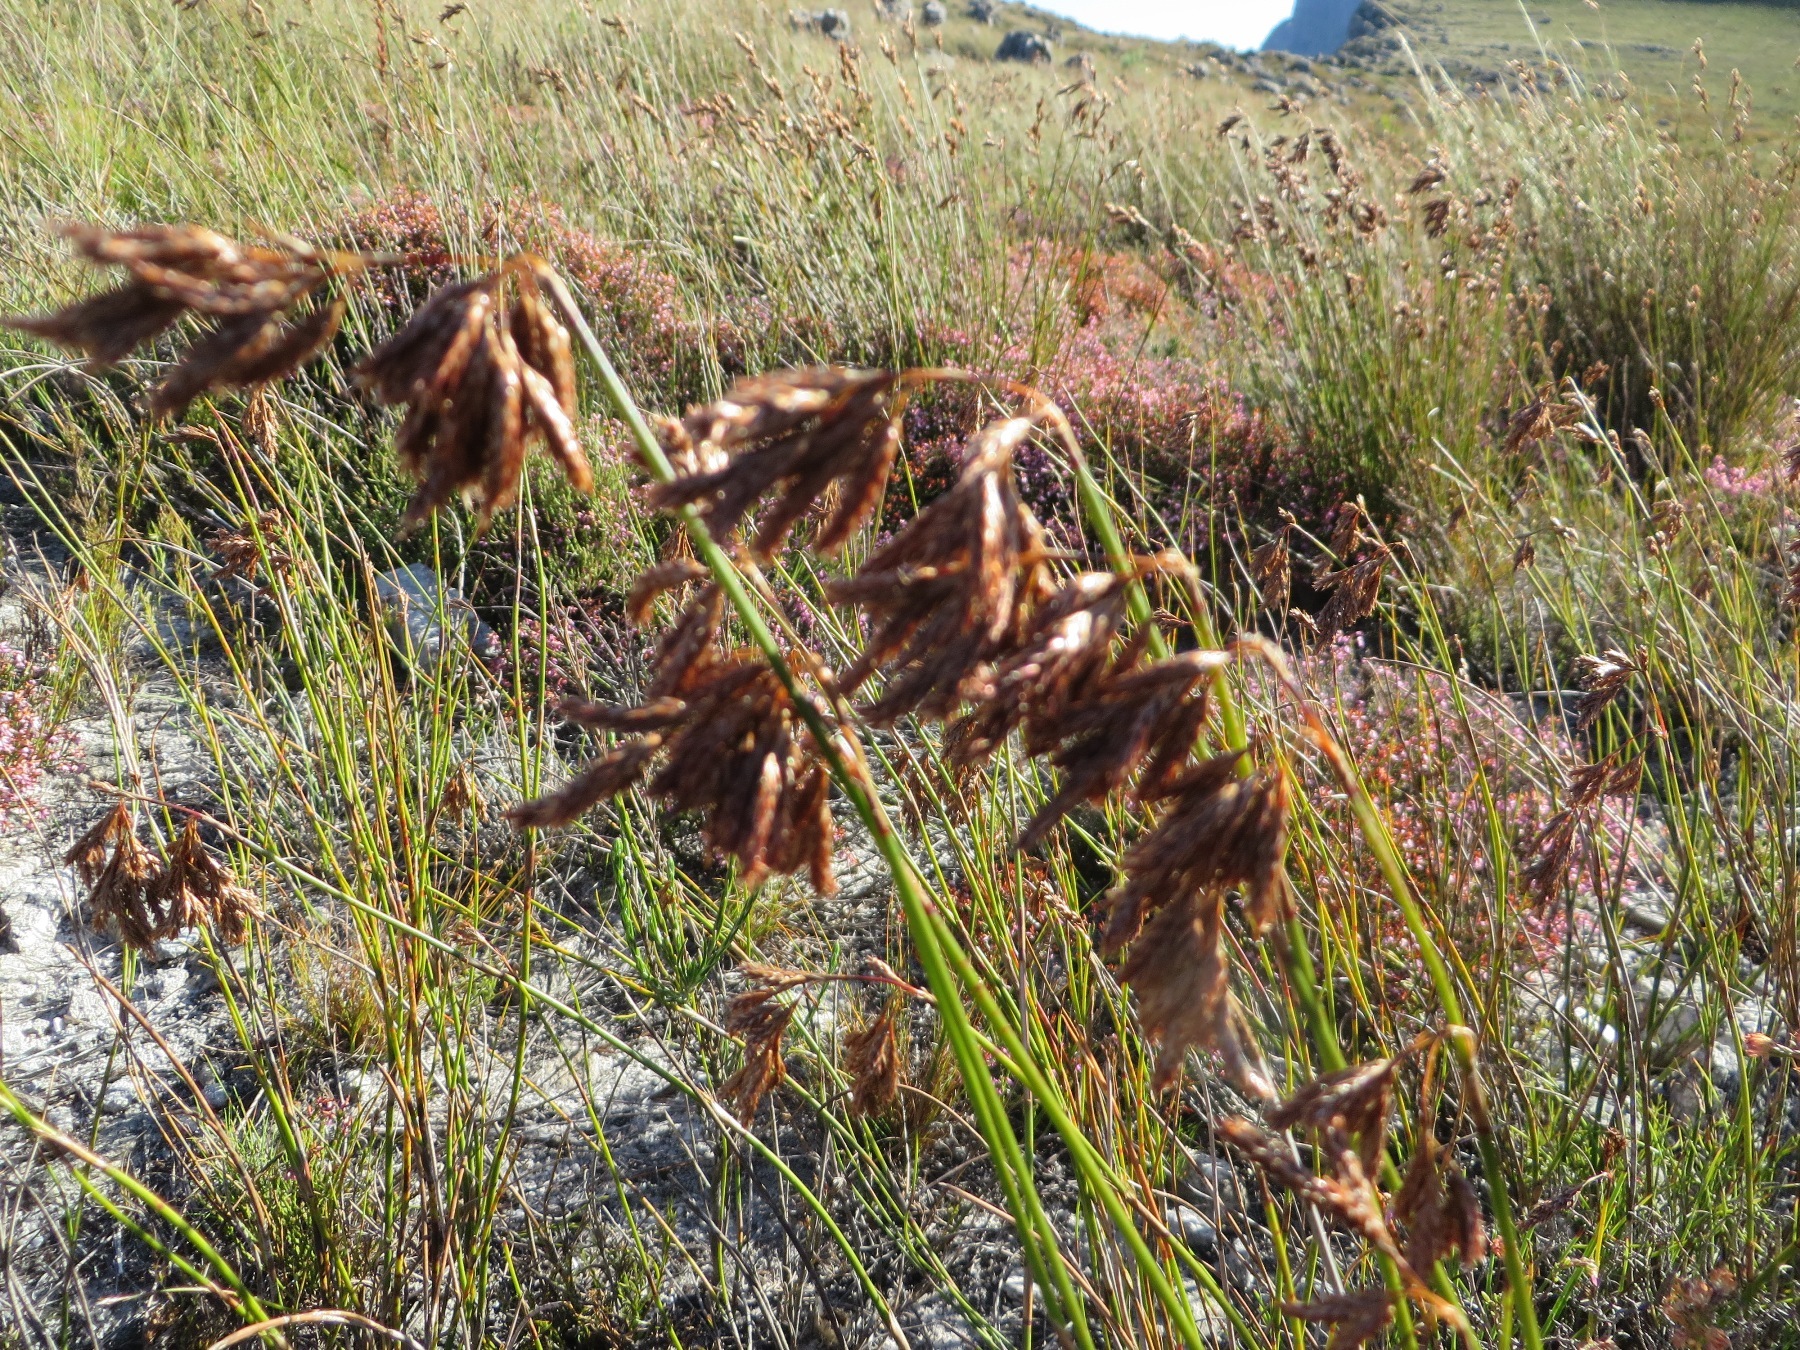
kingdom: Plantae
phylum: Tracheophyta
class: Liliopsida
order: Poales
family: Restionaceae
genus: Thamnochortus
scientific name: Thamnochortus lucens
